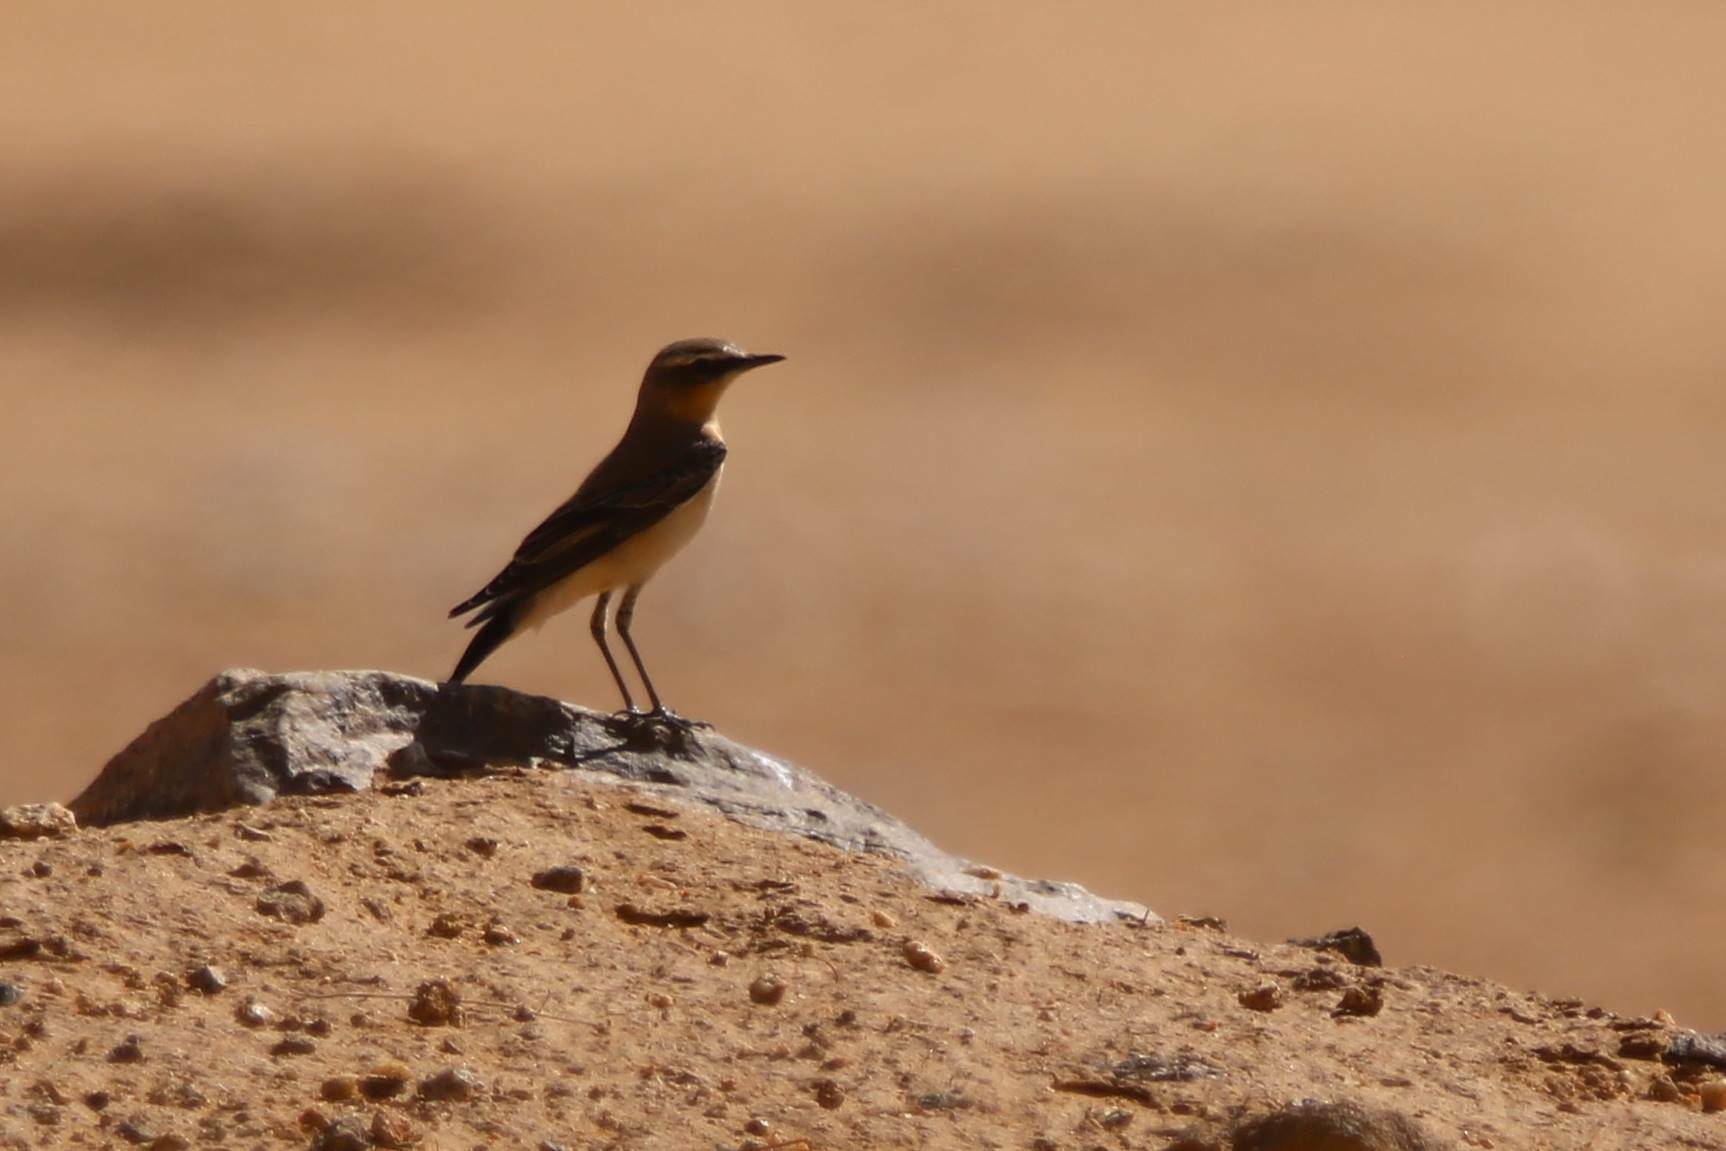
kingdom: Animalia
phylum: Chordata
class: Aves
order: Passeriformes
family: Muscicapidae
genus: Oenanthe
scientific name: Oenanthe oenanthe
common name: Northern wheatear
